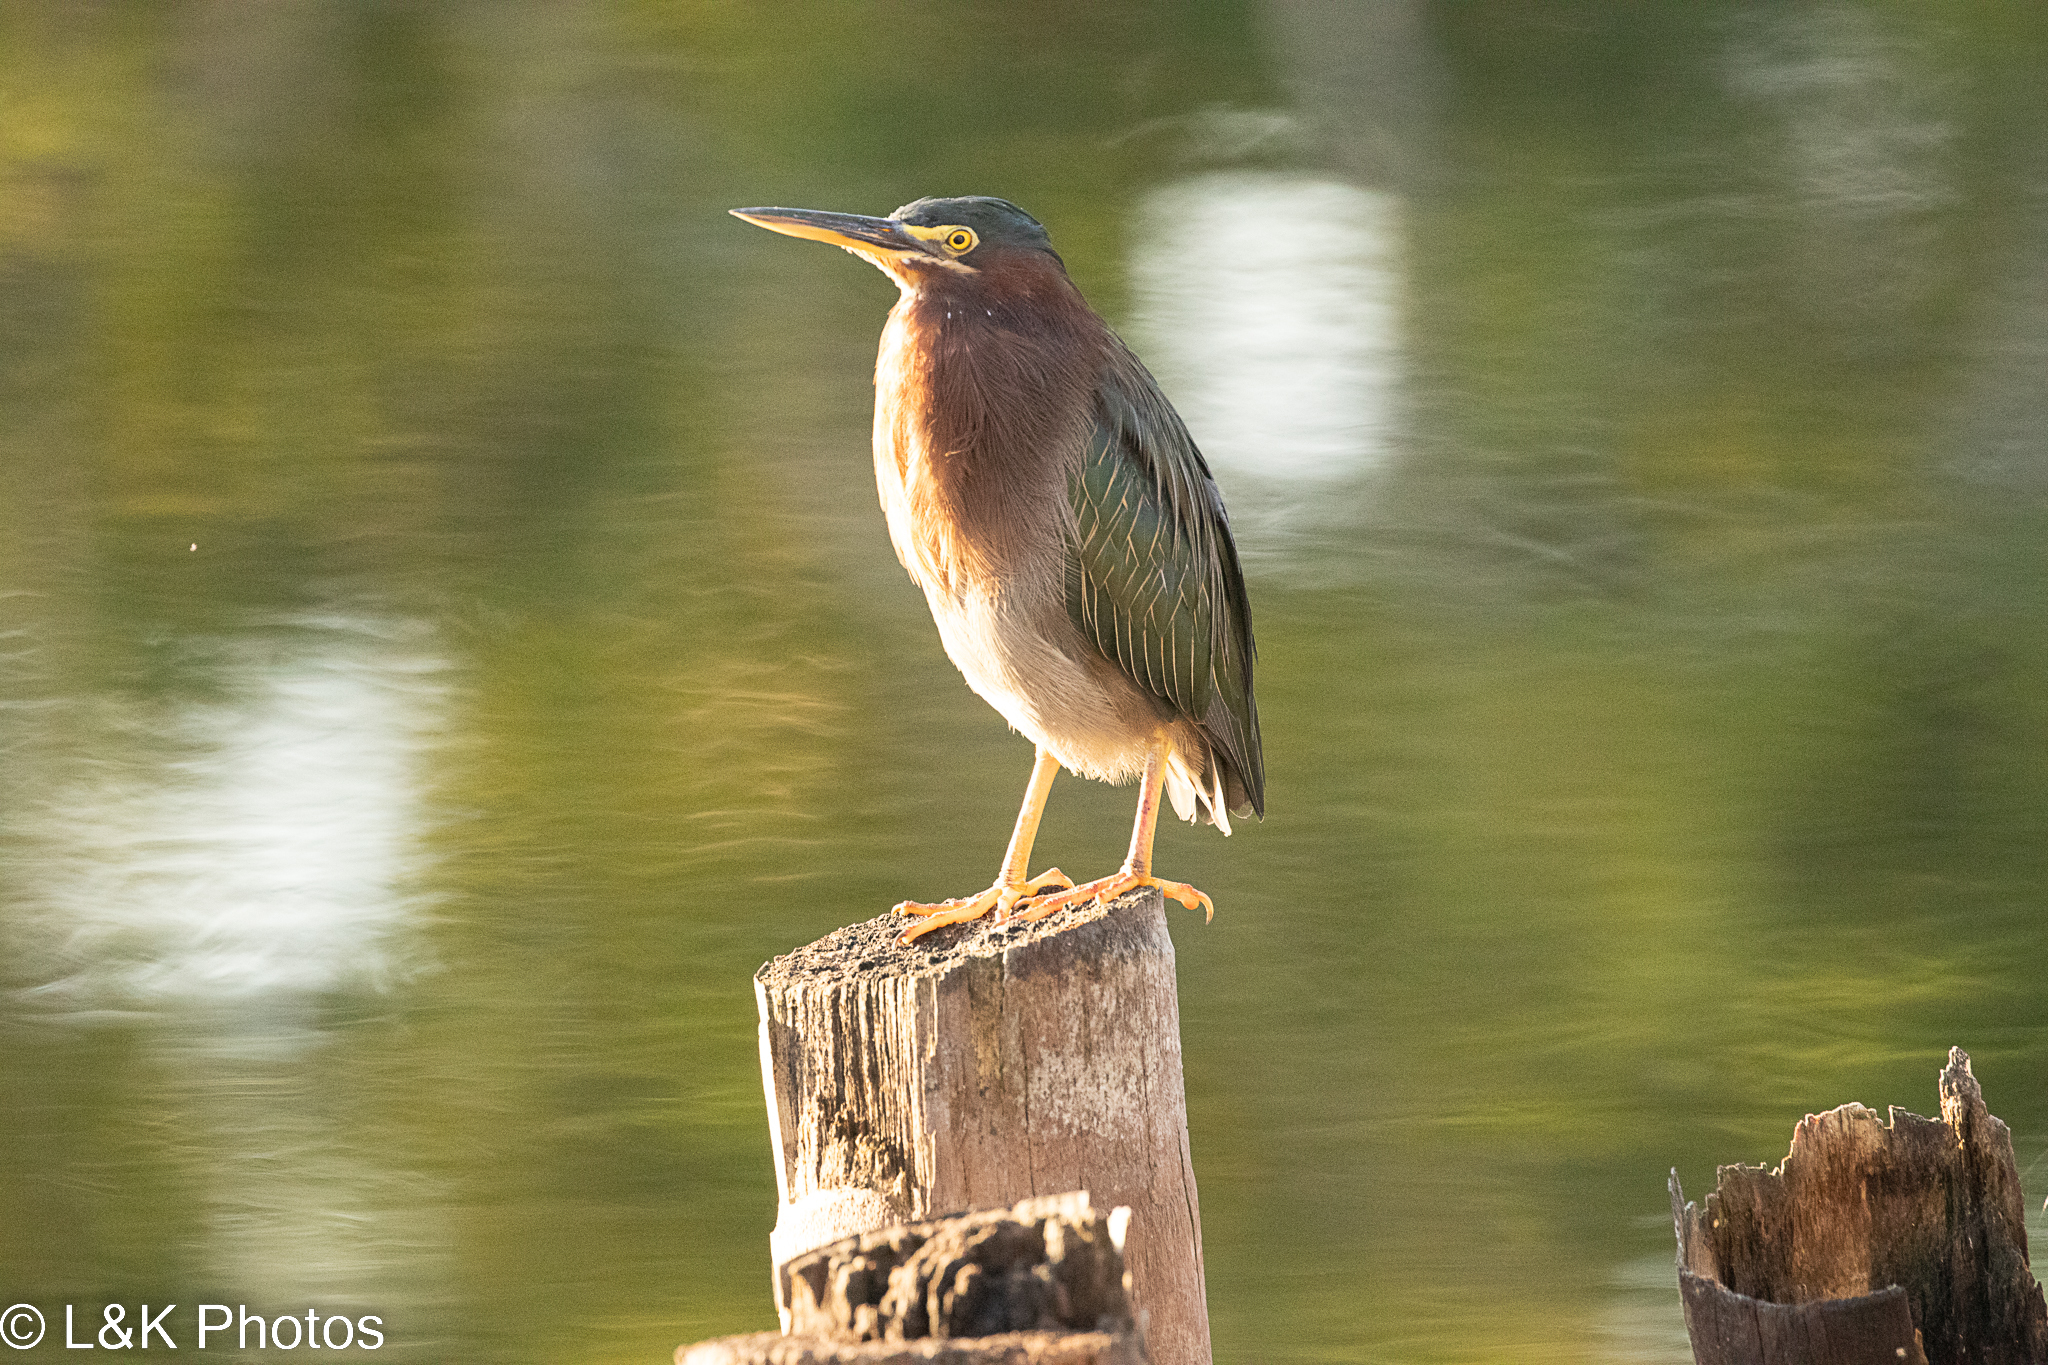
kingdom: Animalia
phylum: Chordata
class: Aves
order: Pelecaniformes
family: Ardeidae
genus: Butorides
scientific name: Butorides virescens
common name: Green heron
